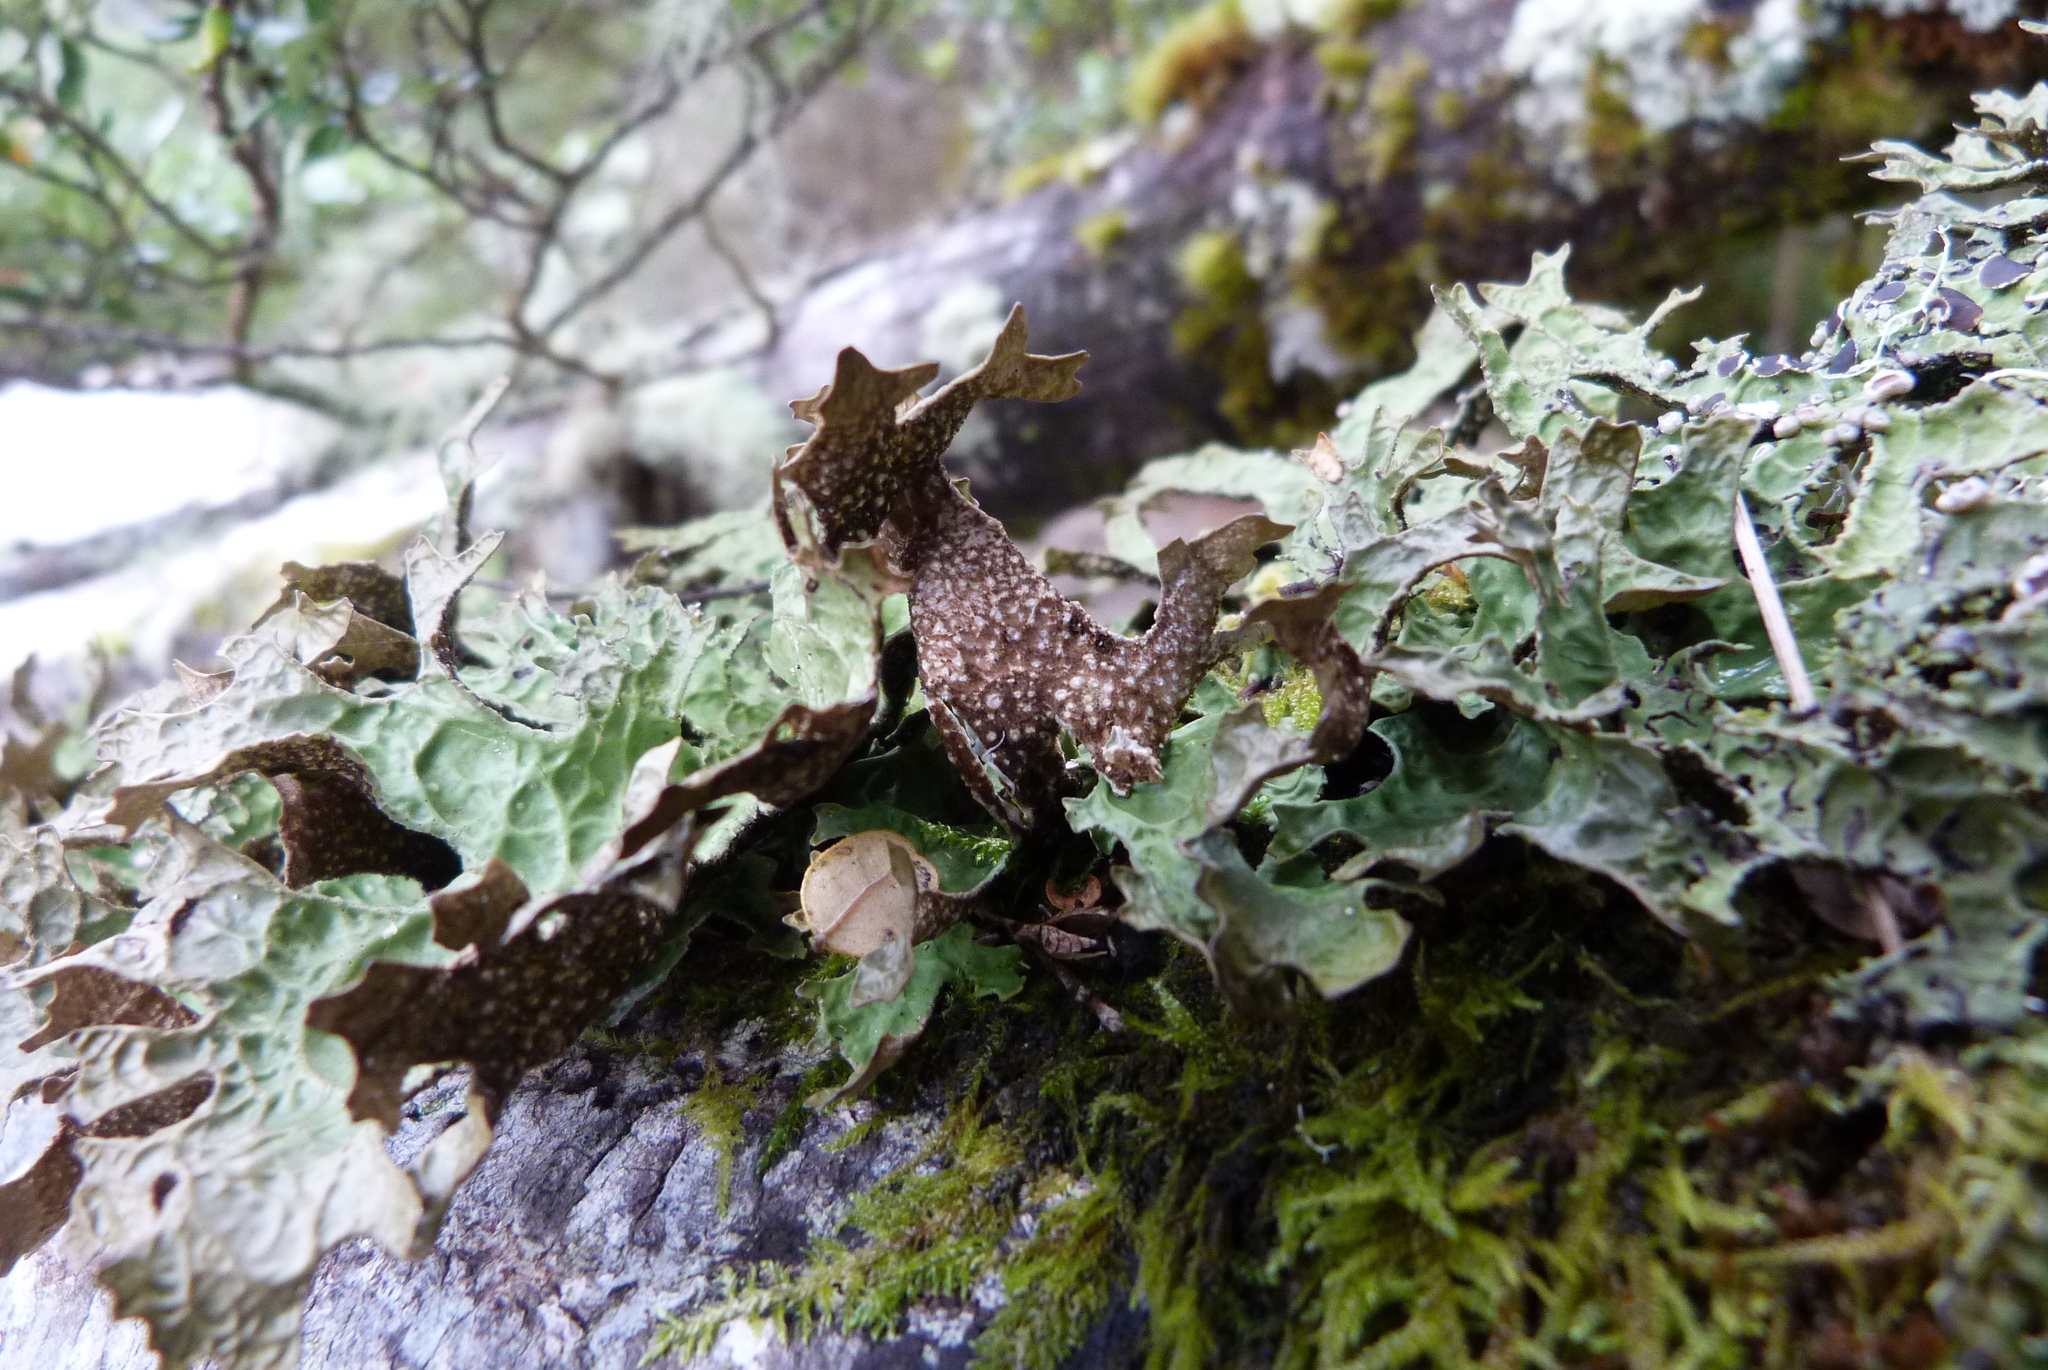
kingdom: Fungi
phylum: Ascomycota
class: Lecanoromycetes
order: Peltigerales
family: Lobariaceae
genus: Pseudocyphellaria
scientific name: Pseudocyphellaria billardierei
